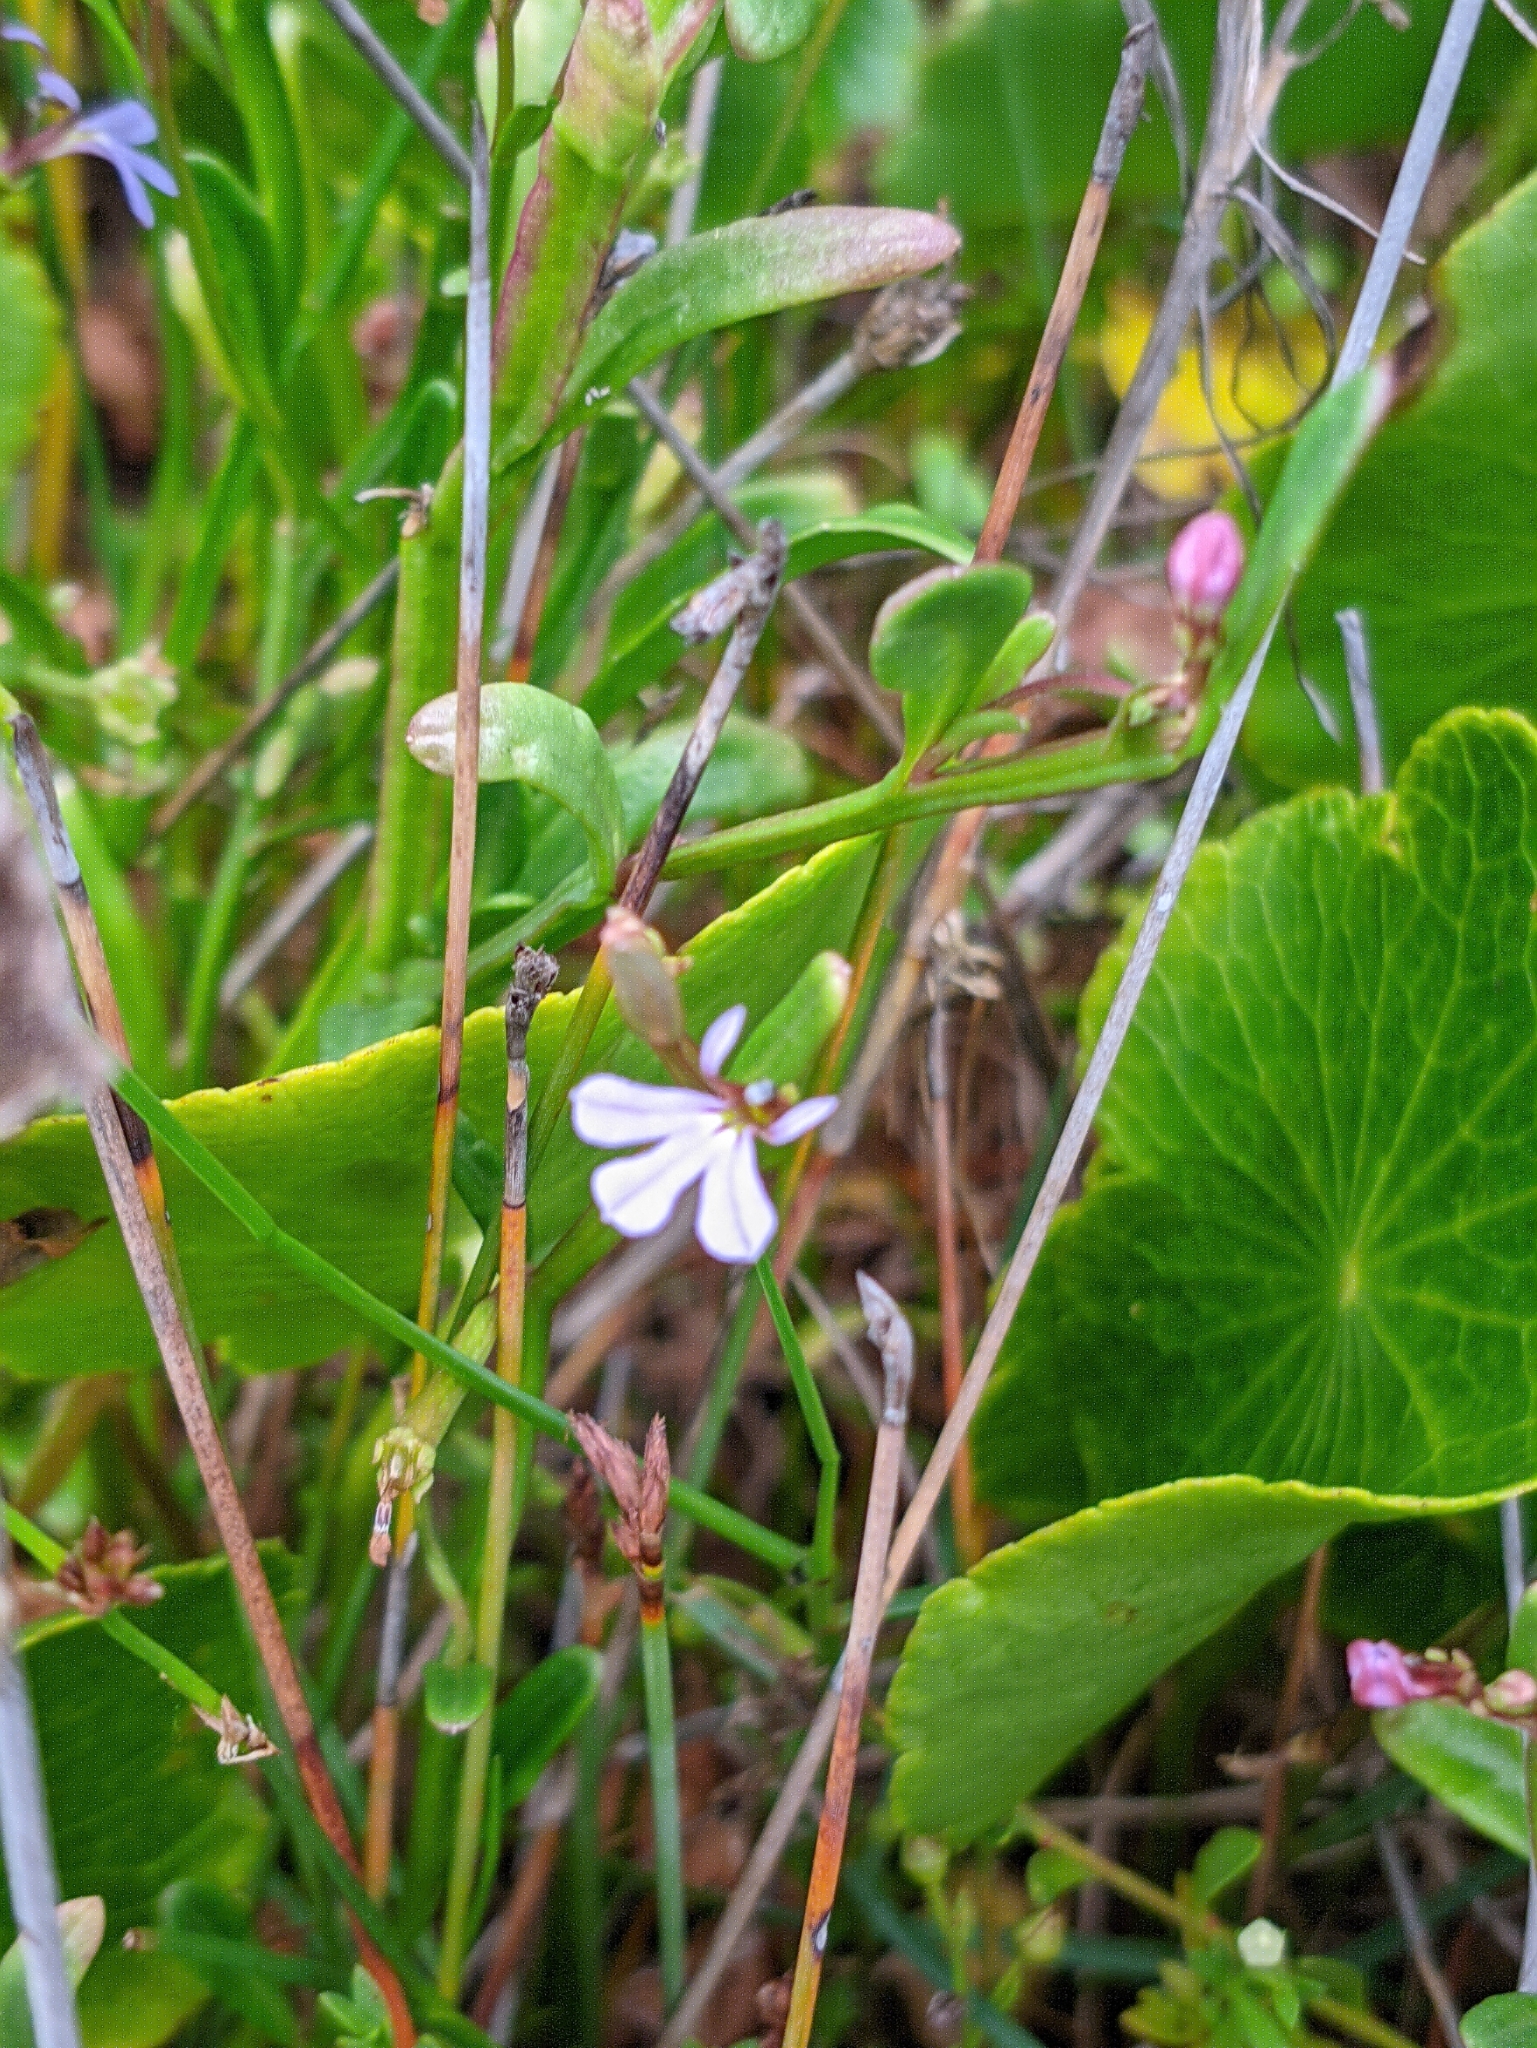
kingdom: Plantae
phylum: Tracheophyta
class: Magnoliopsida
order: Asterales
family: Campanulaceae
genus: Lobelia
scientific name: Lobelia anceps
